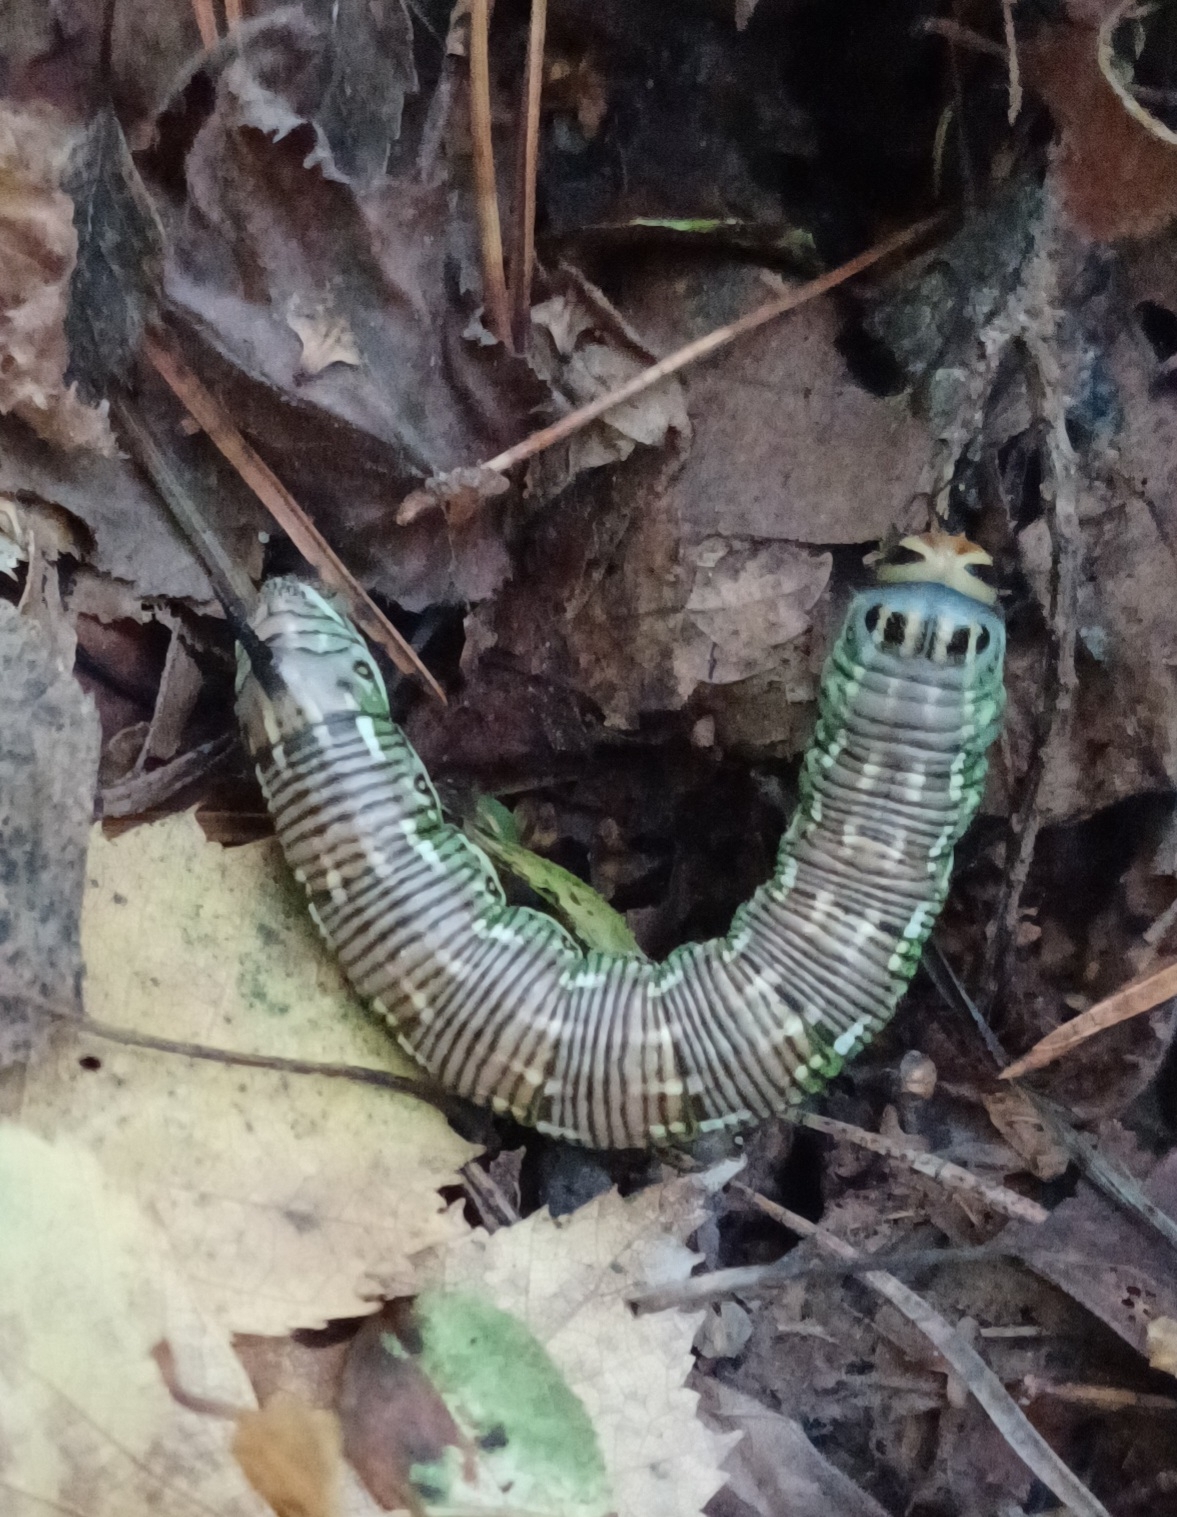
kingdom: Animalia
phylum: Arthropoda
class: Insecta
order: Lepidoptera
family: Sphingidae
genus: Sphinx
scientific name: Sphinx pinastri
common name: Pine hawk-moth
